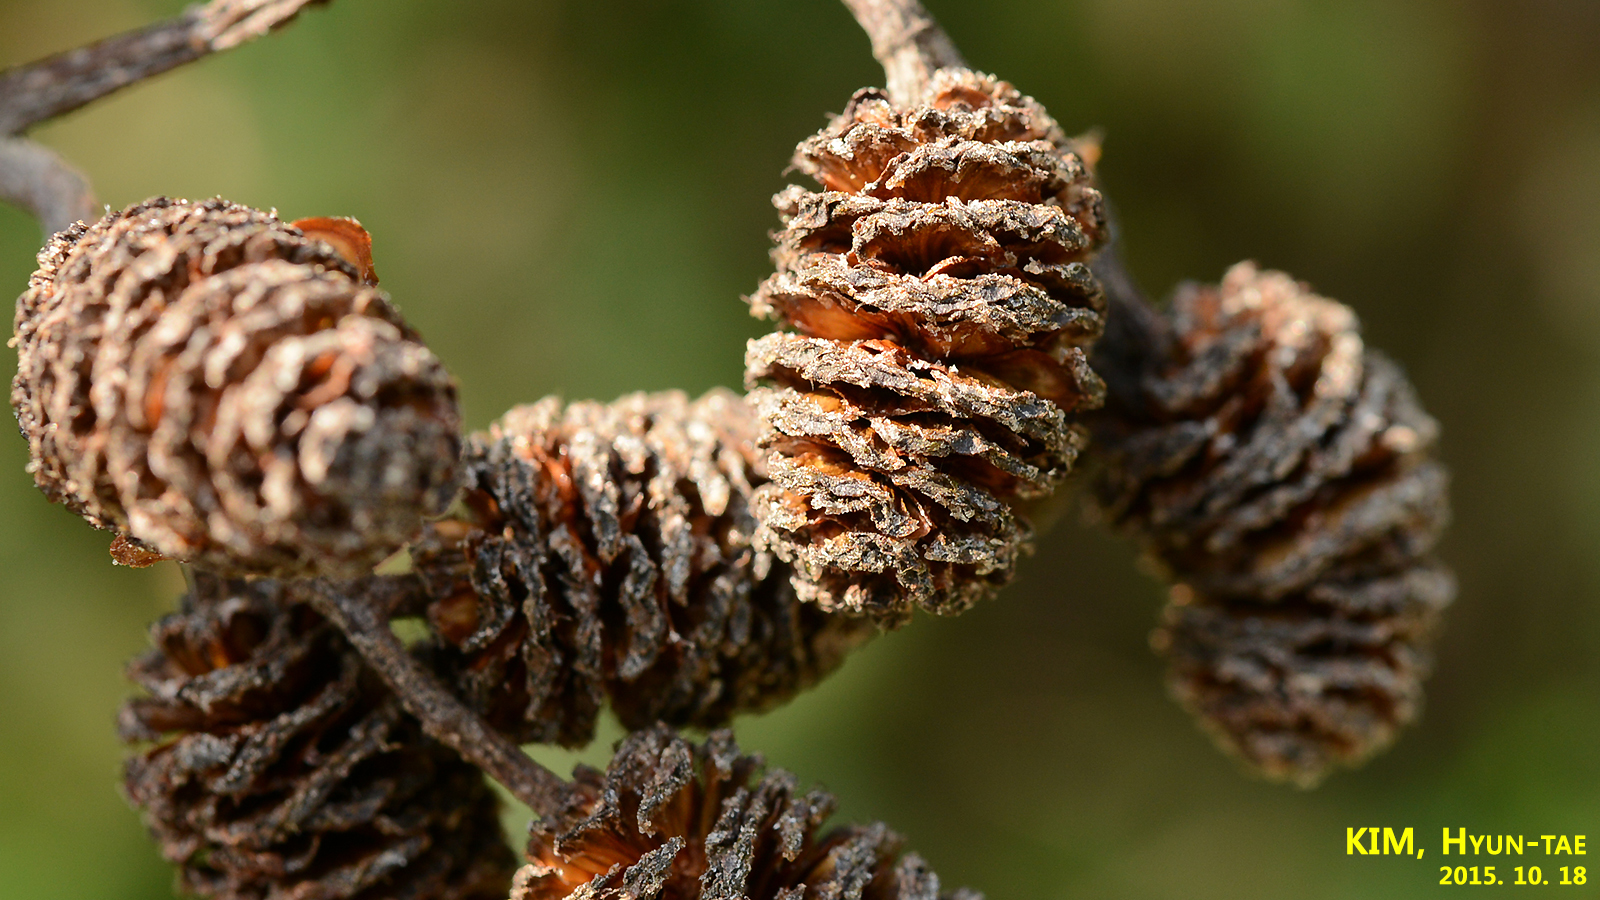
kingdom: Plantae
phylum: Tracheophyta
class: Magnoliopsida
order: Fagales
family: Betulaceae
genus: Alnus
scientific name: Alnus hirsuta
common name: Manchurian alder
